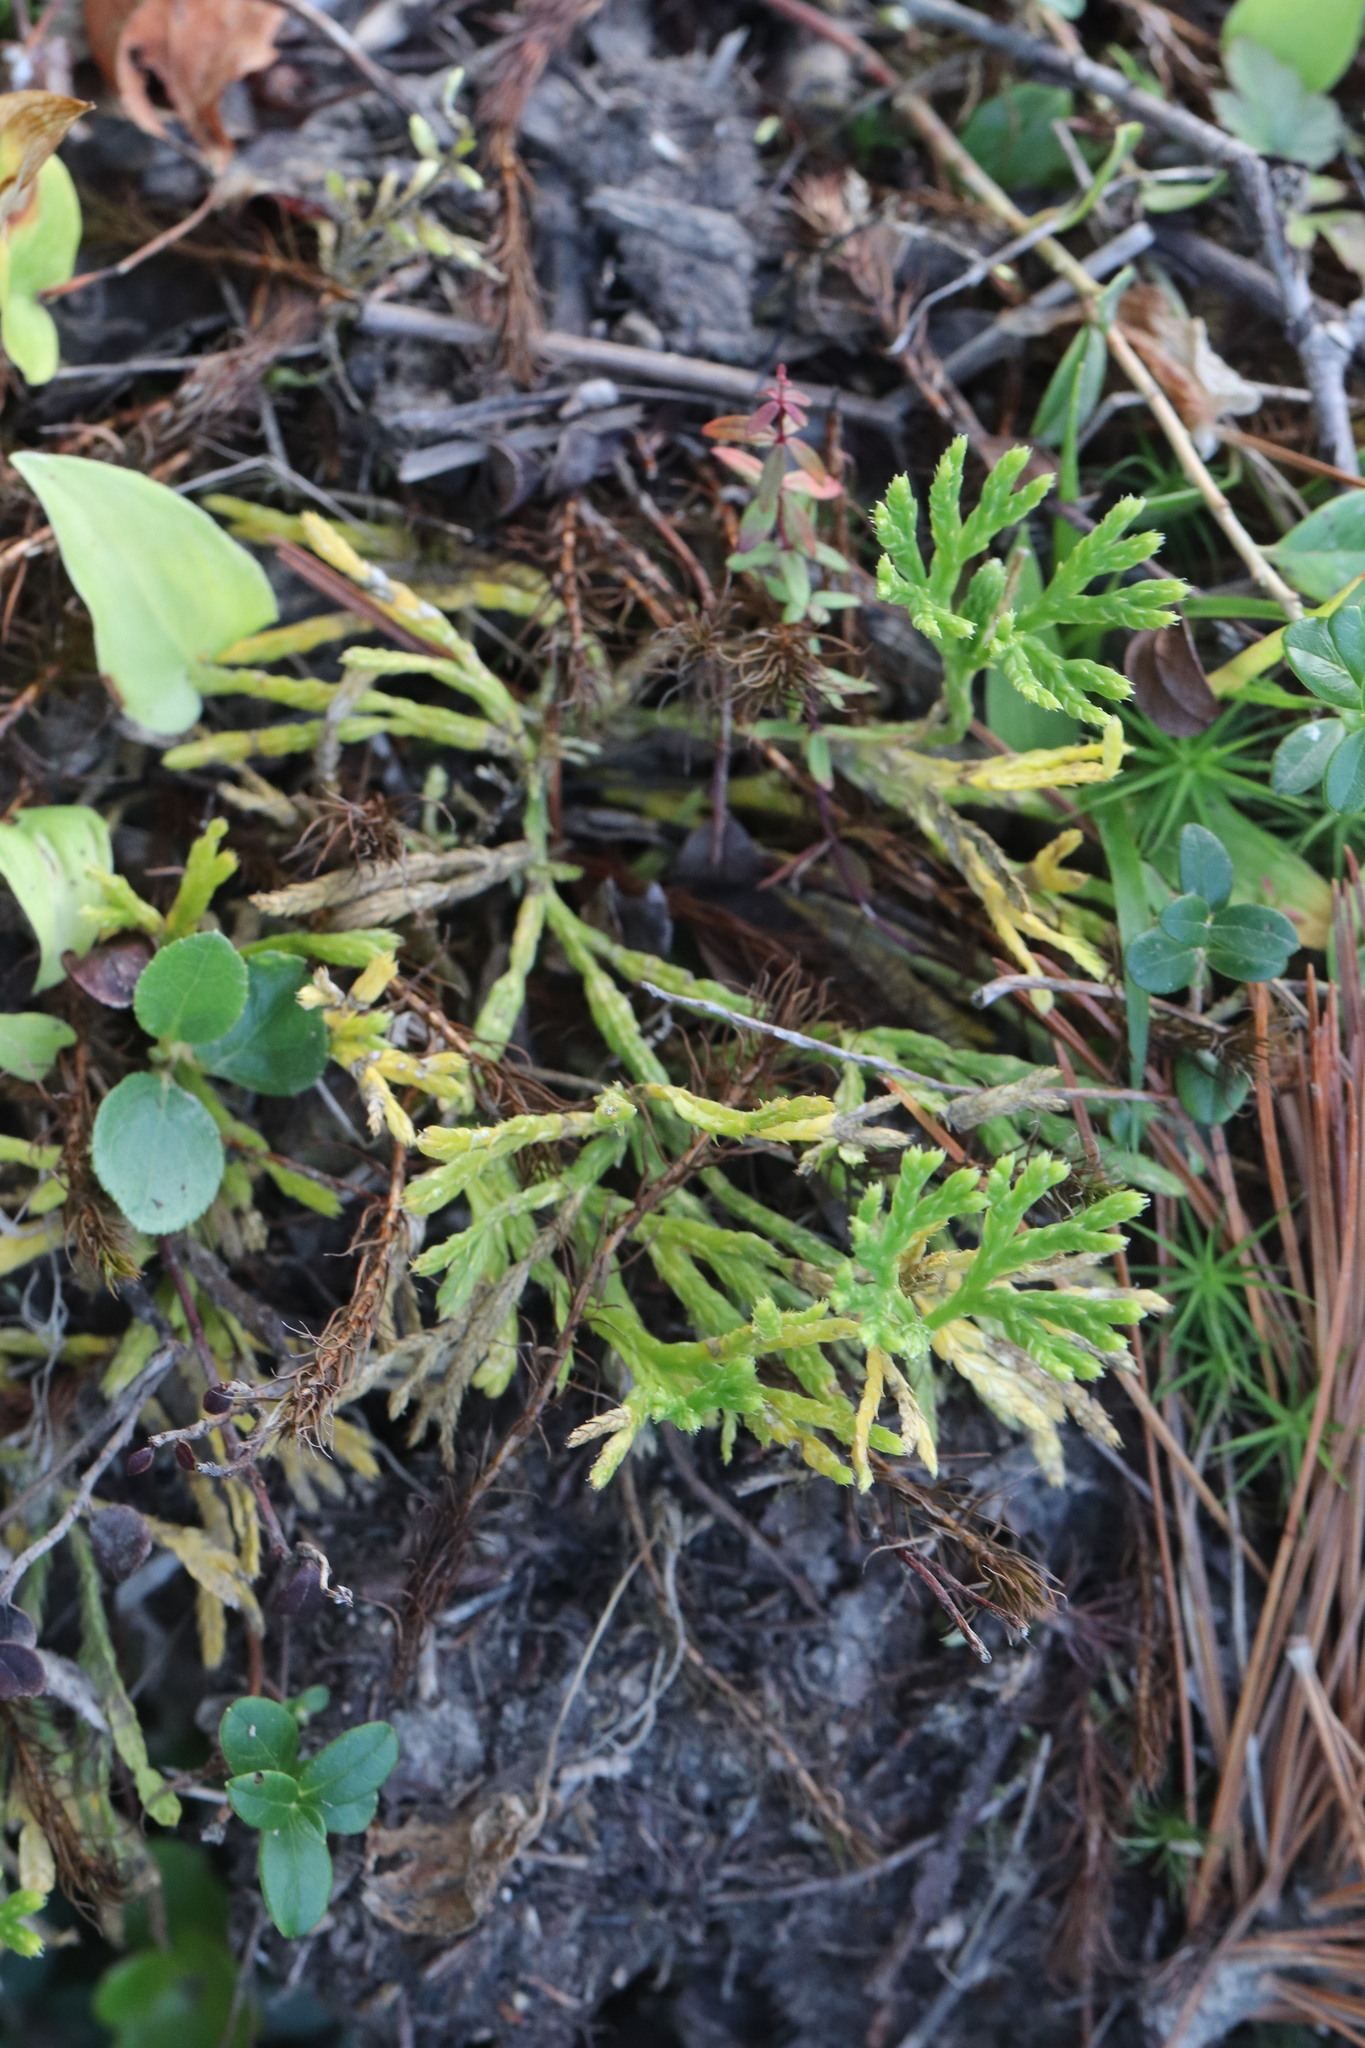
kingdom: Plantae
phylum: Tracheophyta
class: Lycopodiopsida
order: Lycopodiales
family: Lycopodiaceae
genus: Diphasiastrum
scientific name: Diphasiastrum complanatum
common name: Northern running-pine
